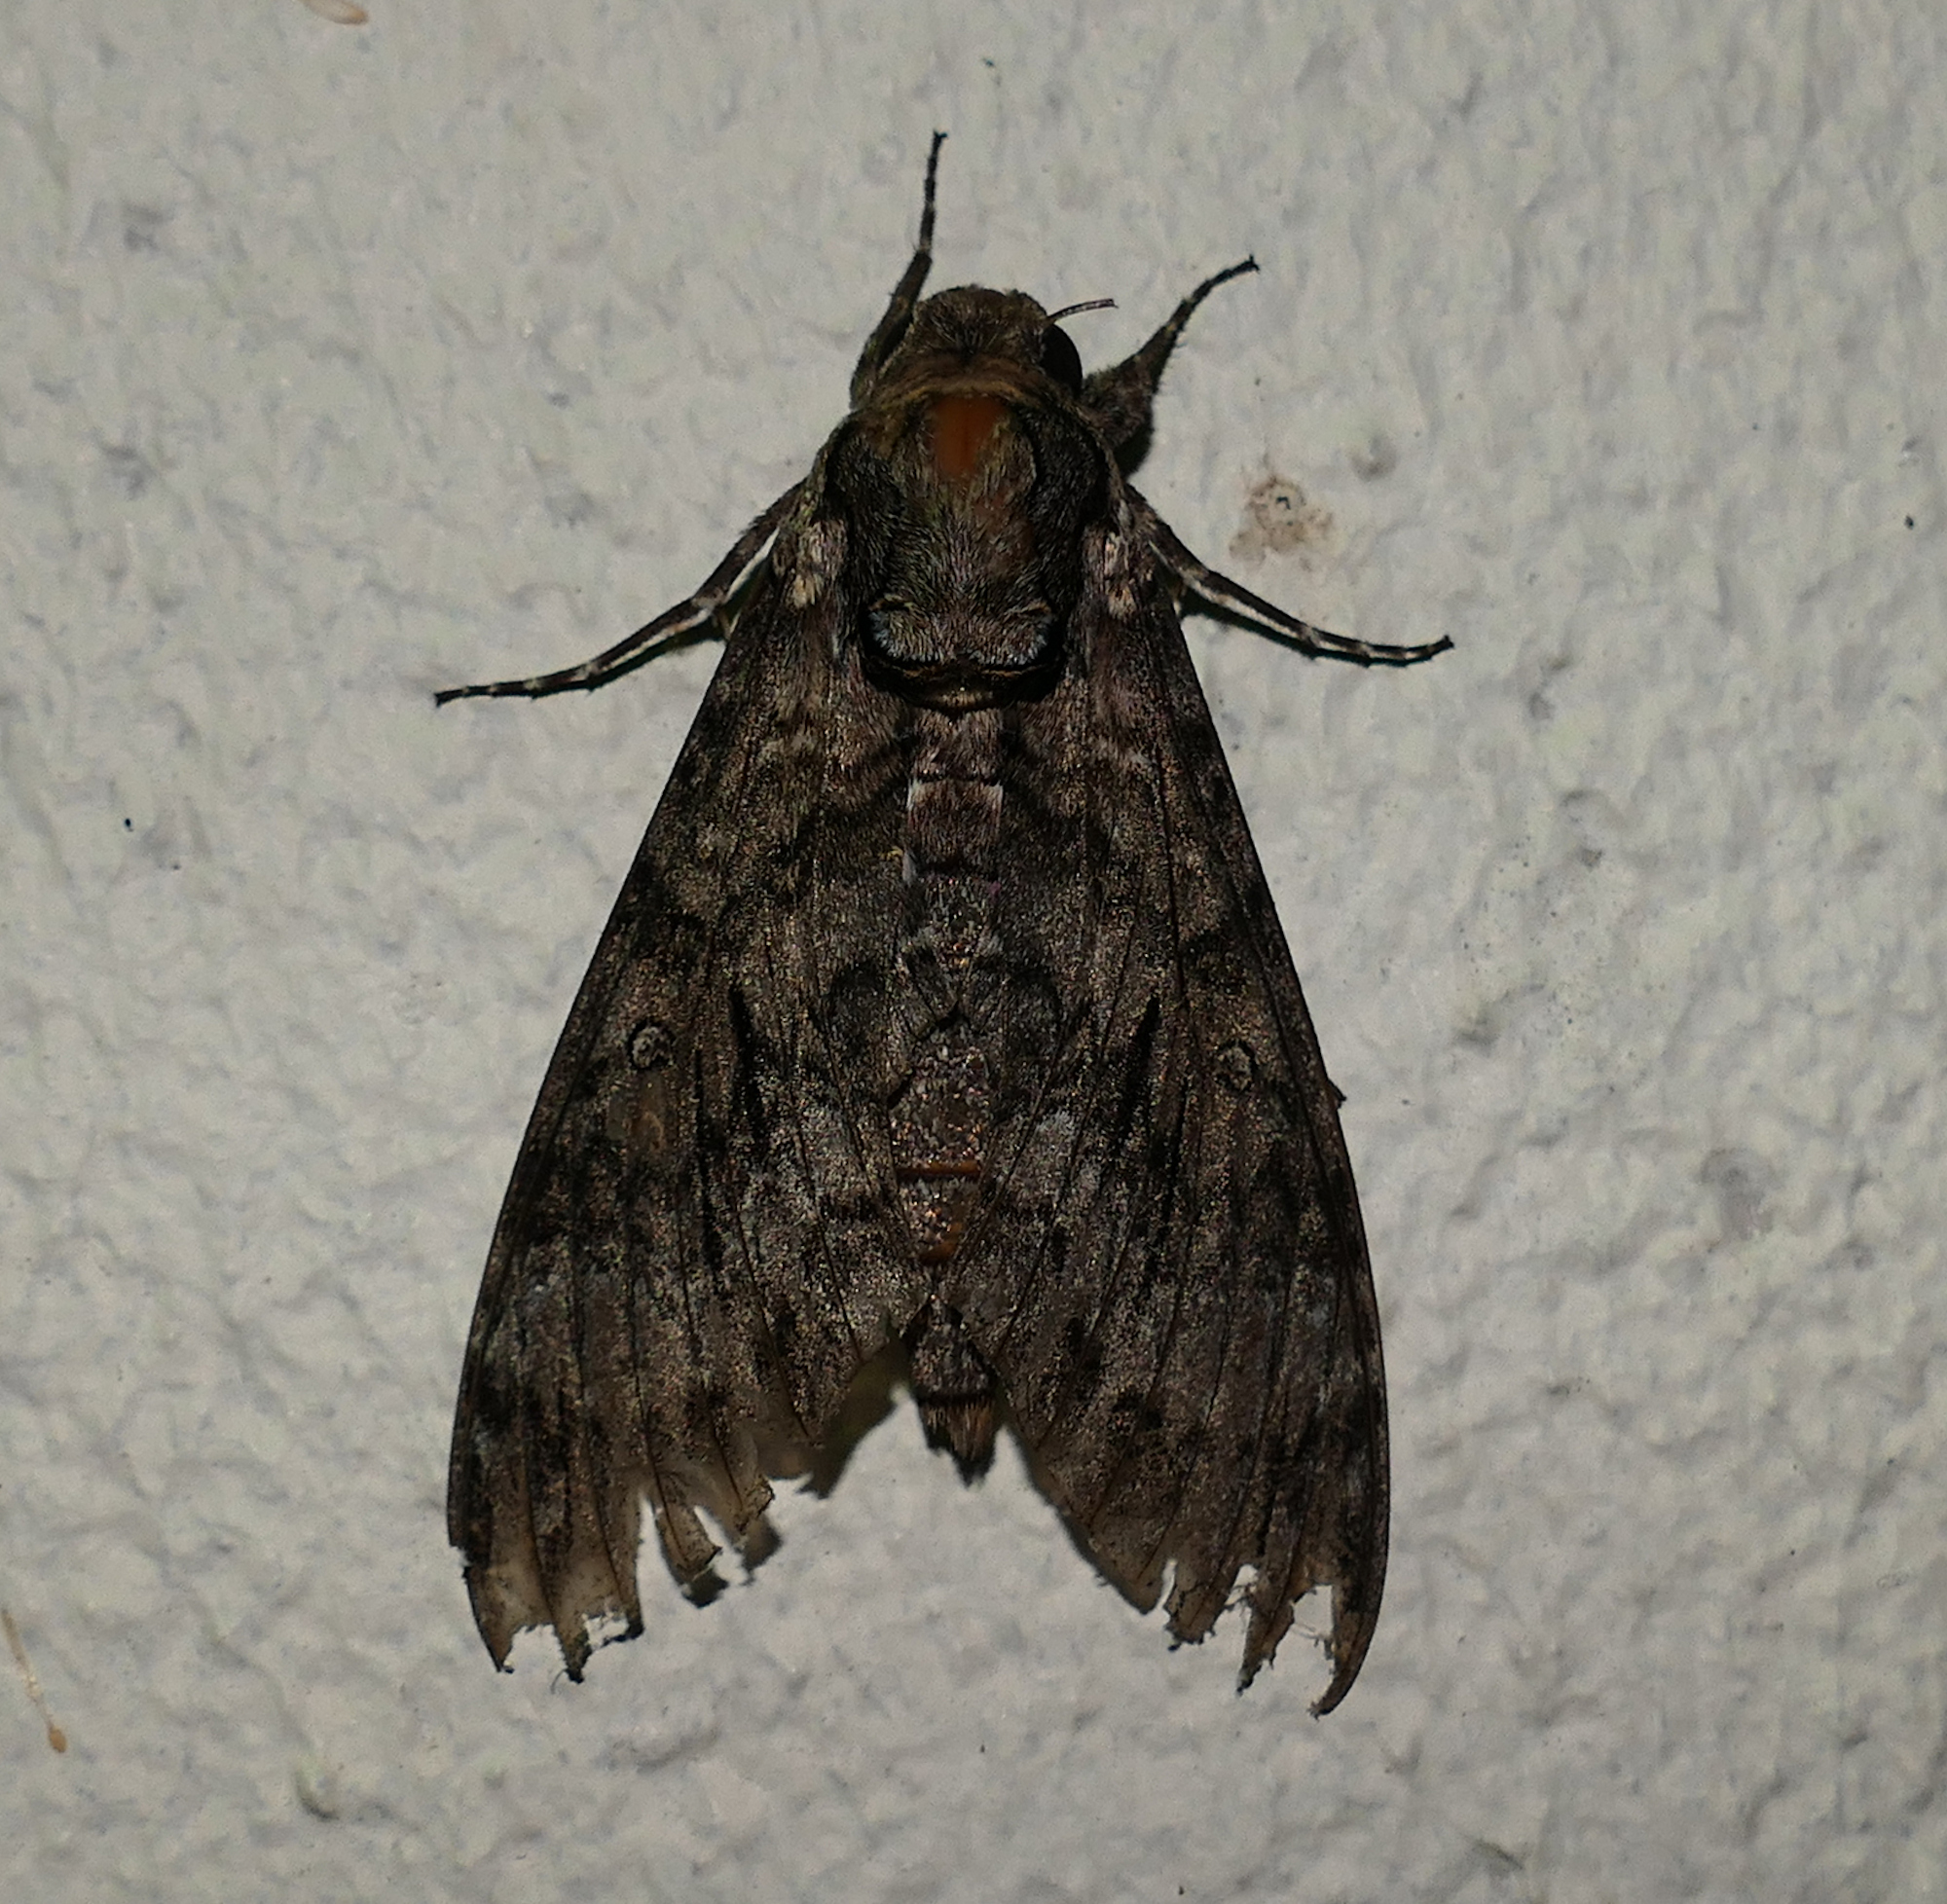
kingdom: Animalia
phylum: Arthropoda
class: Insecta
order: Lepidoptera
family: Sphingidae
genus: Agrius
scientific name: Agrius cingulata
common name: Pink-spotted hawkmoth
